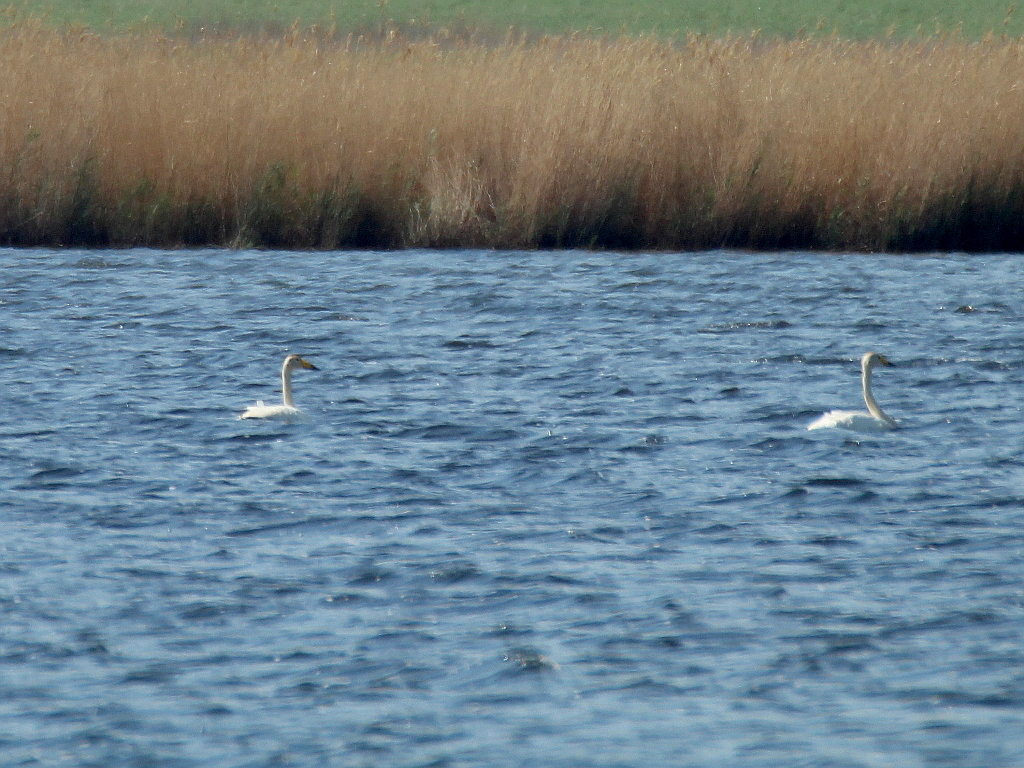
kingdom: Animalia
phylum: Chordata
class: Aves
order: Anseriformes
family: Anatidae
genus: Cygnus
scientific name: Cygnus cygnus
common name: Whooper swan
